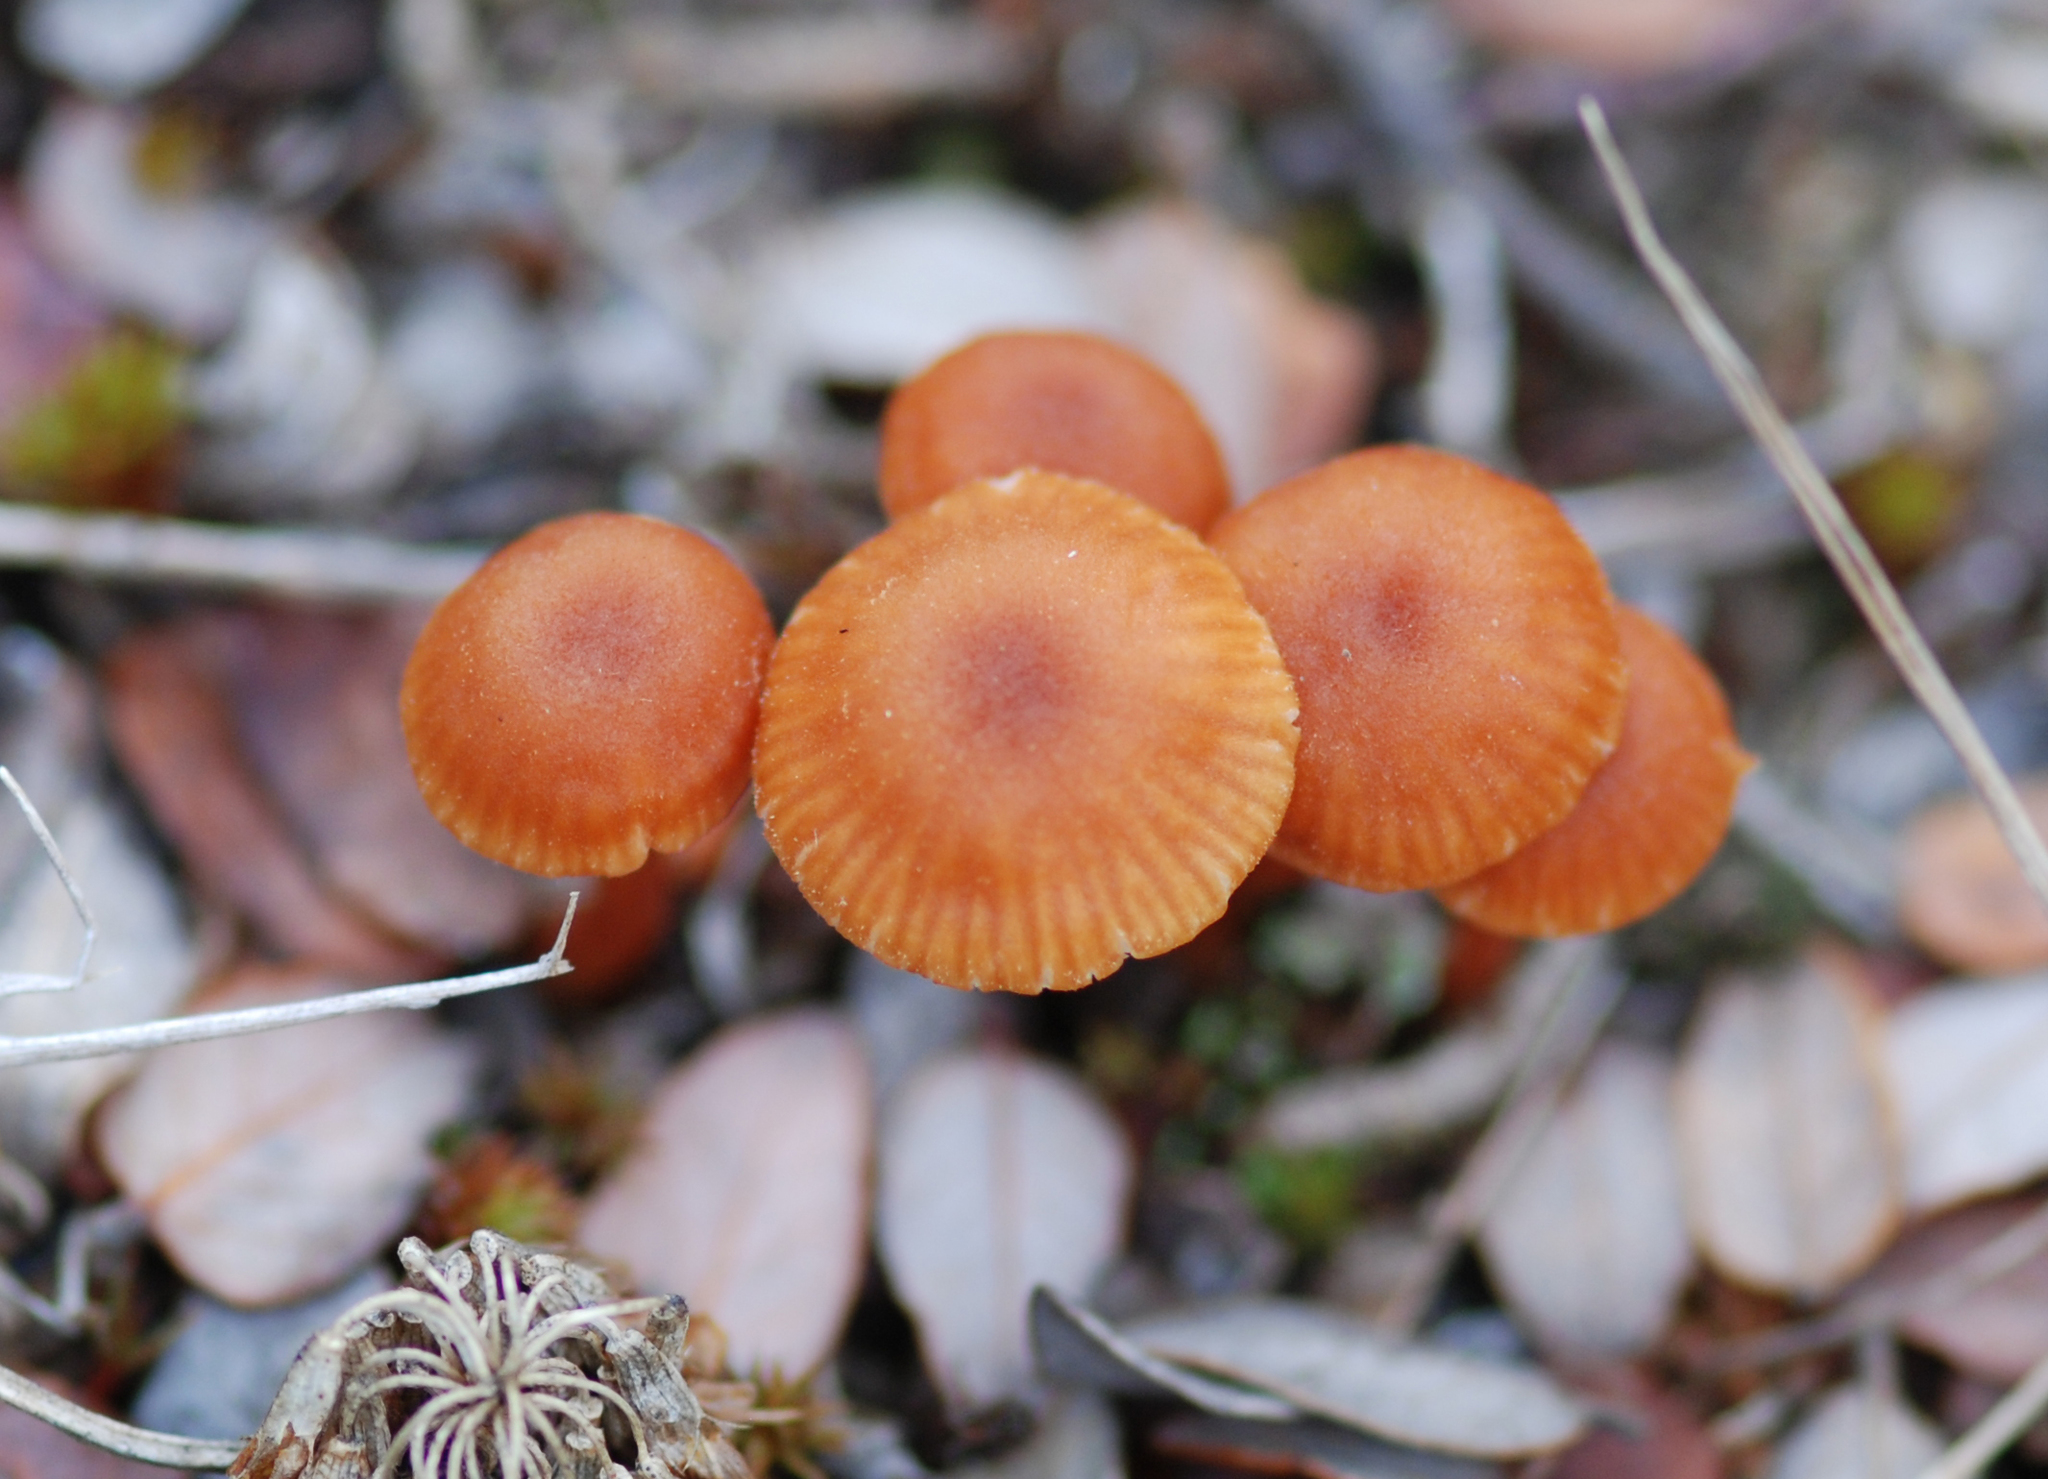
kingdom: Fungi
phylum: Basidiomycota
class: Agaricomycetes
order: Agaricales
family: Hydnangiaceae
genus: Laccaria
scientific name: Laccaria glabripes
